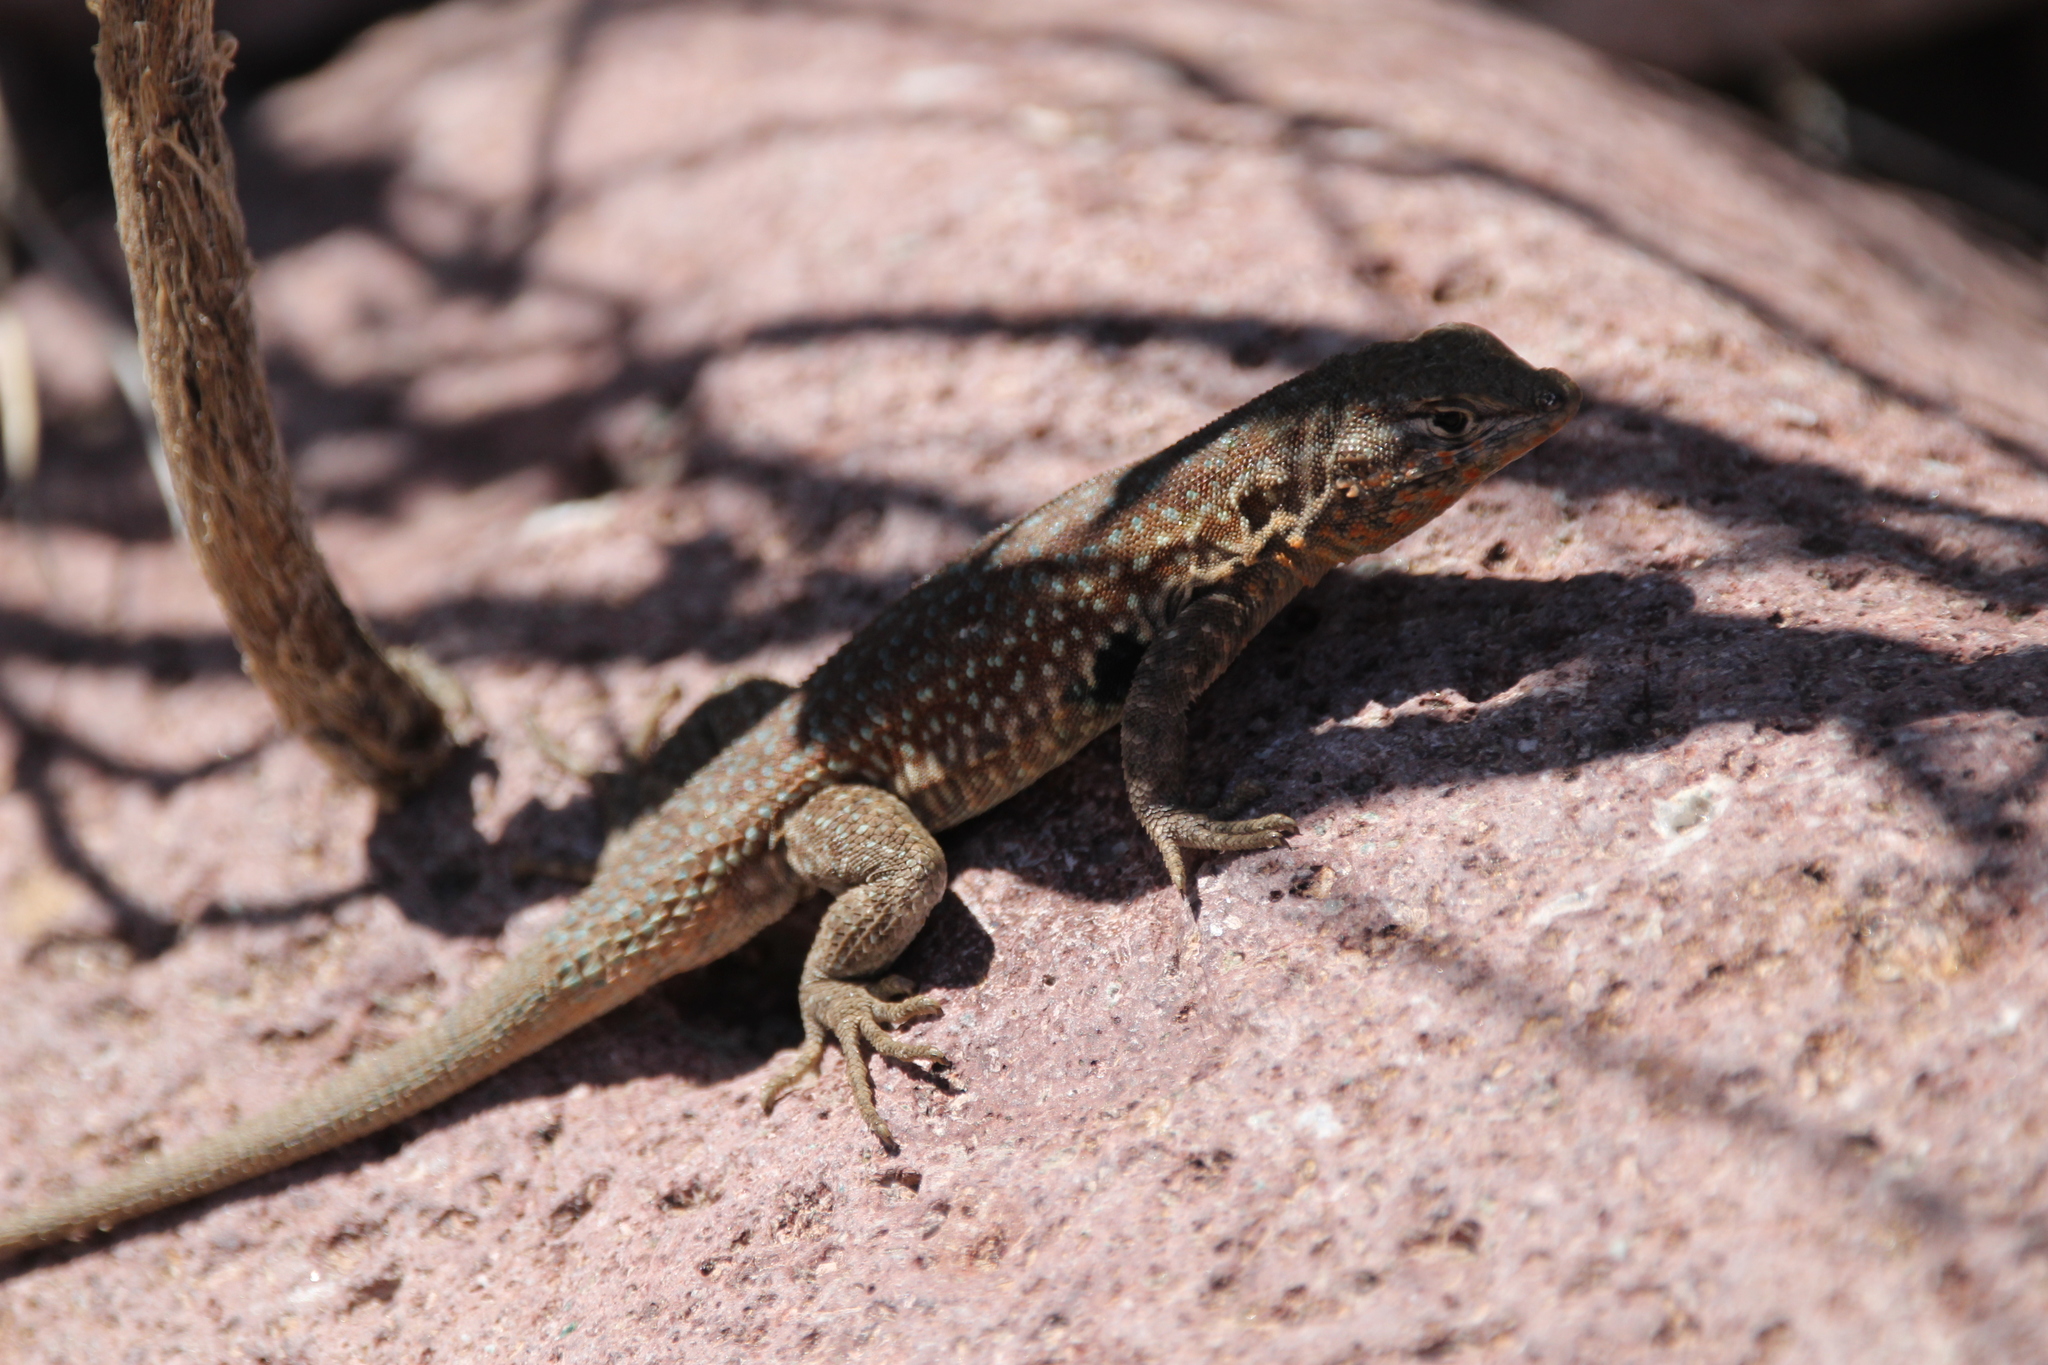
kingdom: Animalia
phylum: Chordata
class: Squamata
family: Phrynosomatidae
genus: Uta
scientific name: Uta stansburiana
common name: Side-blotched lizard
